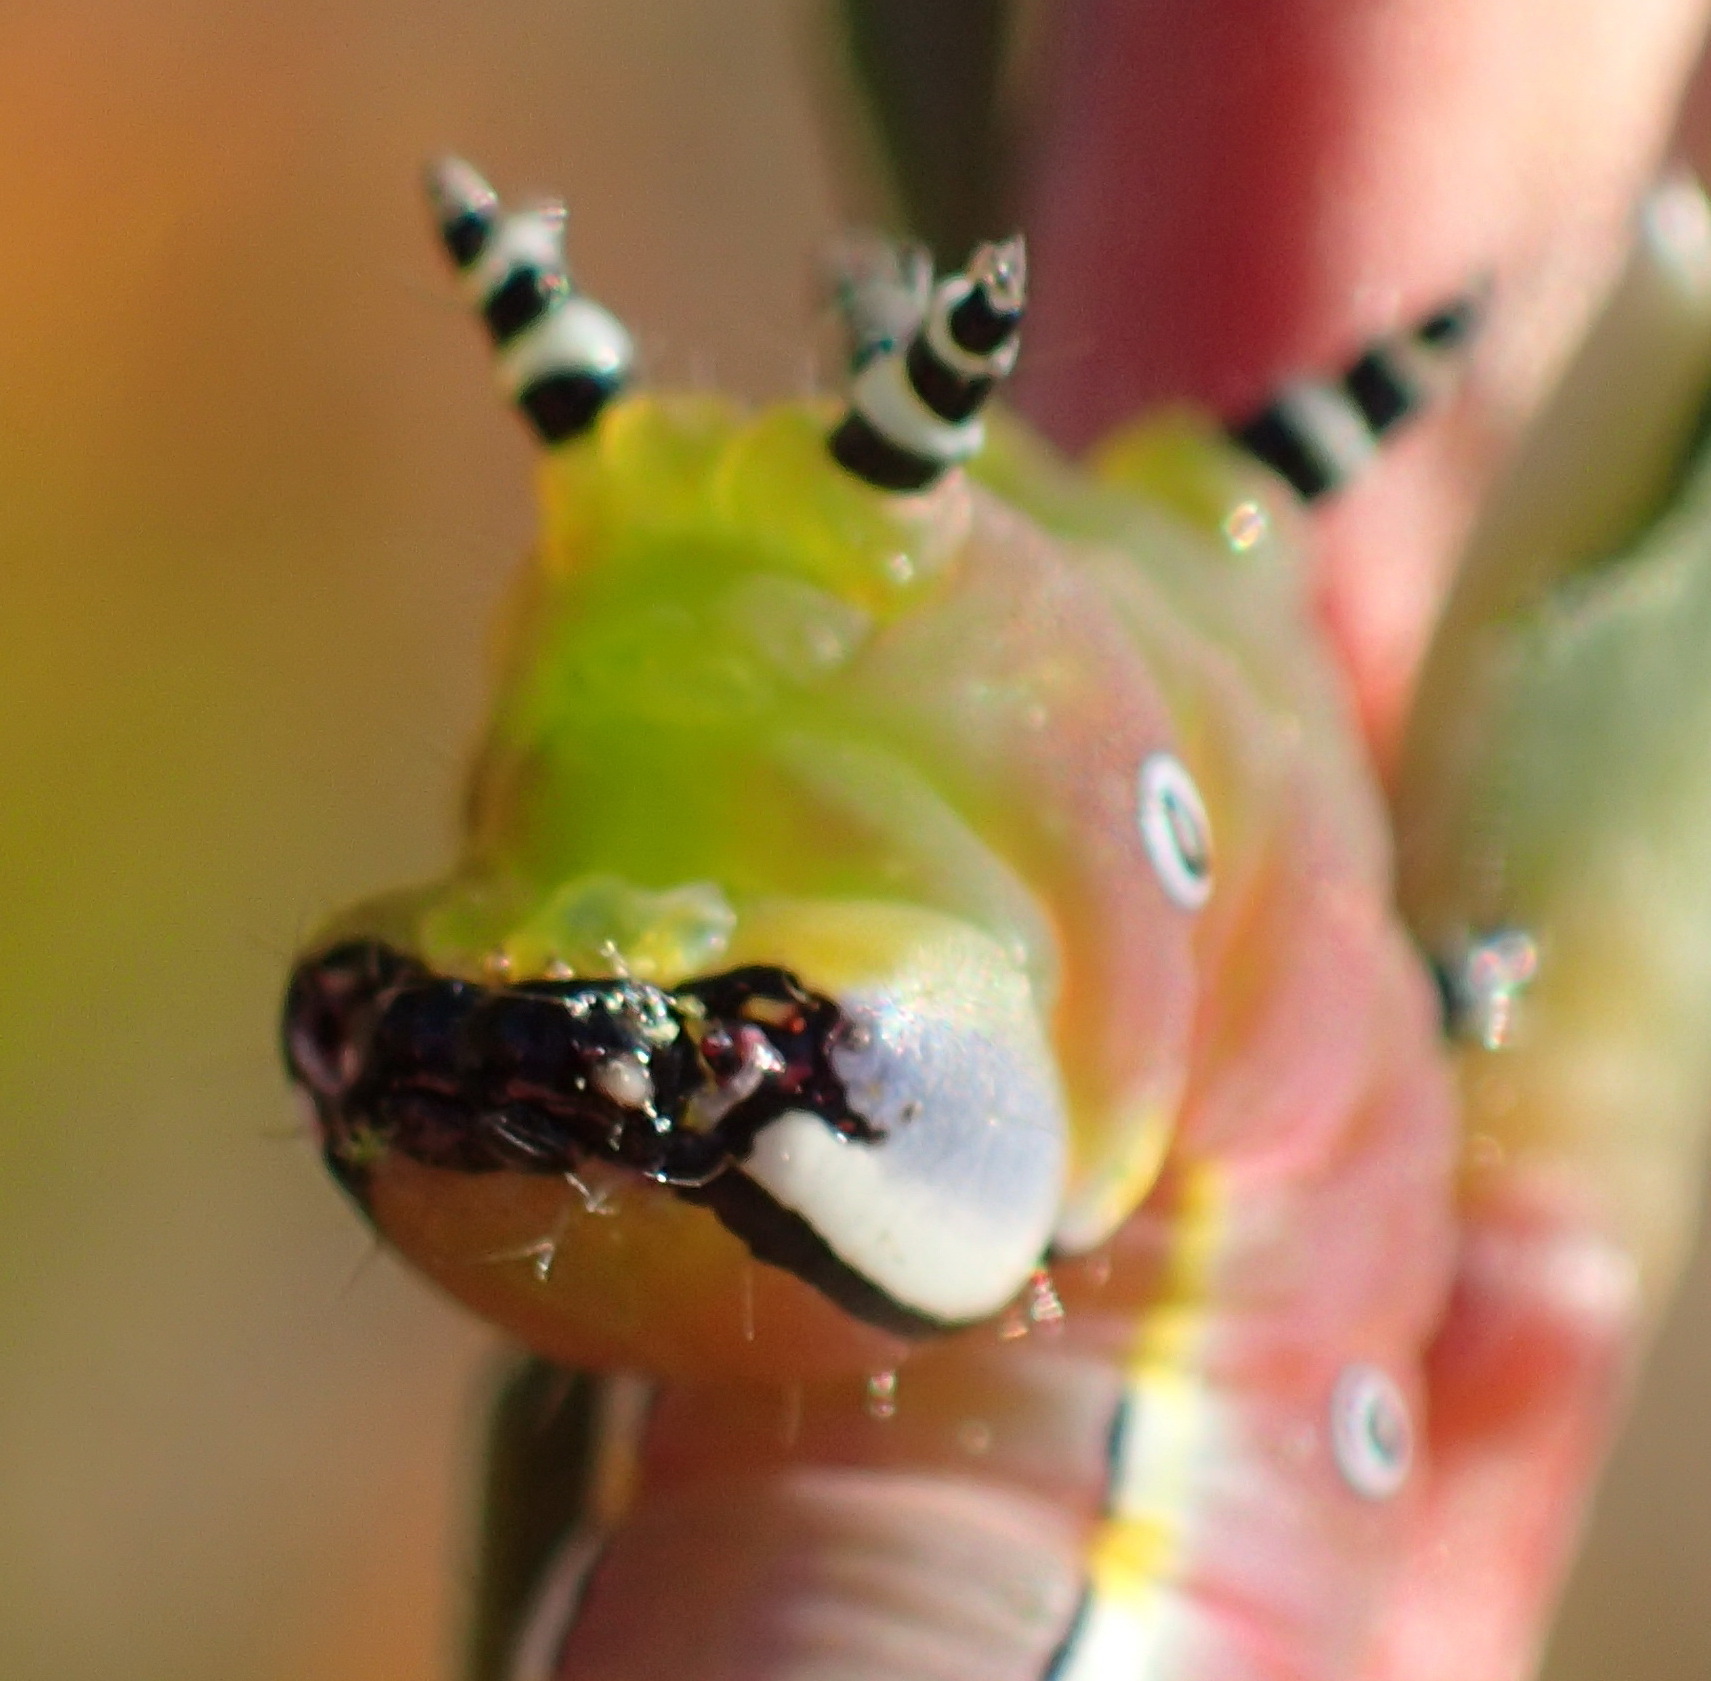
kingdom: Animalia
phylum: Arthropoda
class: Insecta
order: Lepidoptera
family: Notodontidae
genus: Catochria
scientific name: Catochria catocaloides
